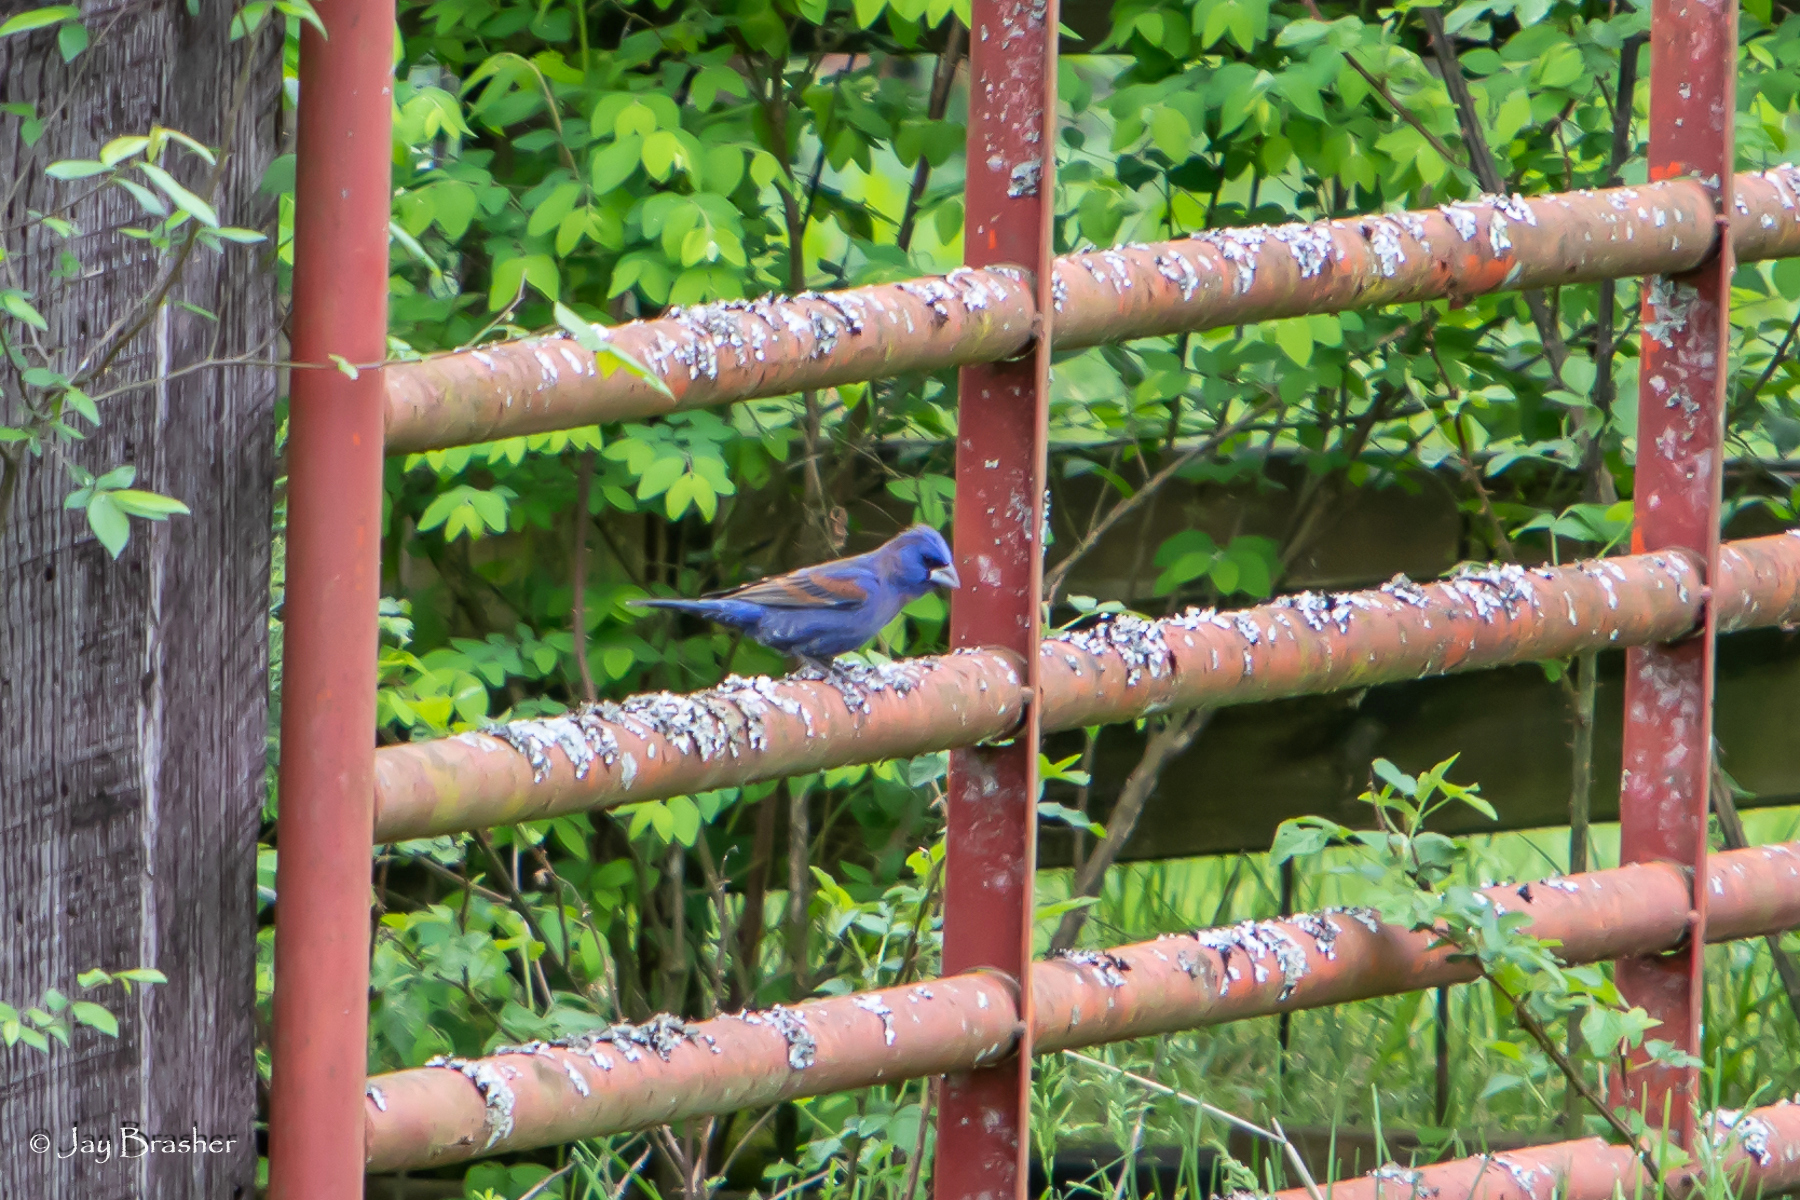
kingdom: Animalia
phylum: Chordata
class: Aves
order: Passeriformes
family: Cardinalidae
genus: Passerina
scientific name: Passerina caerulea
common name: Blue grosbeak
